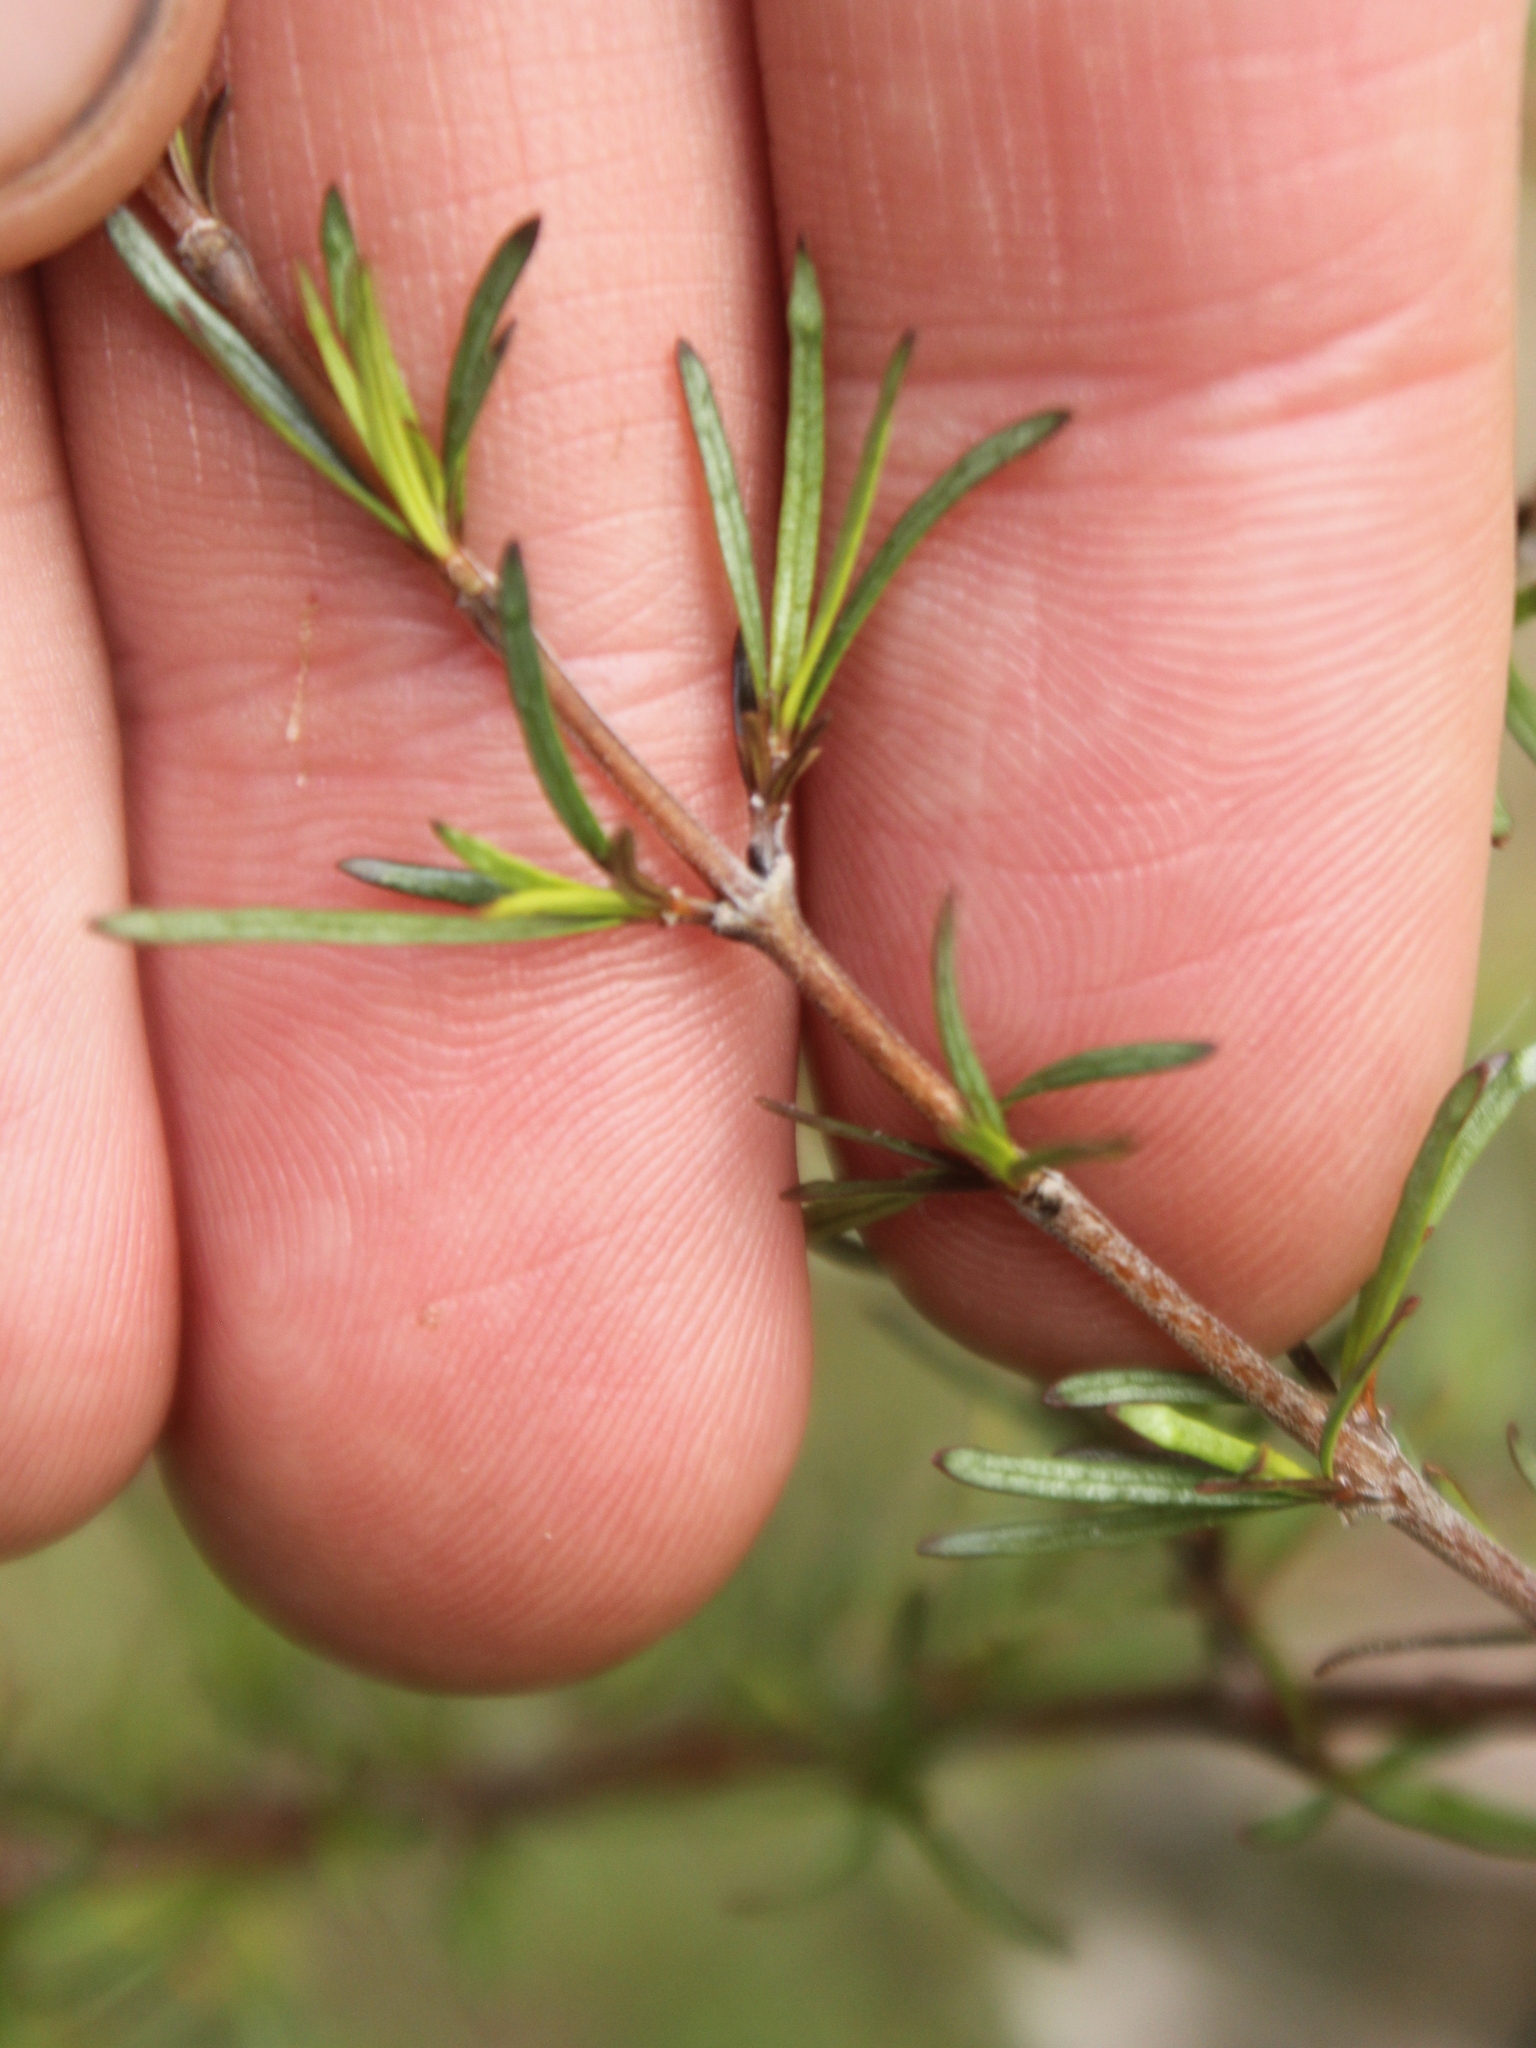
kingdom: Plantae
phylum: Tracheophyta
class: Magnoliopsida
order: Gentianales
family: Rubiaceae
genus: Coprosma
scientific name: Coprosma rugosa
